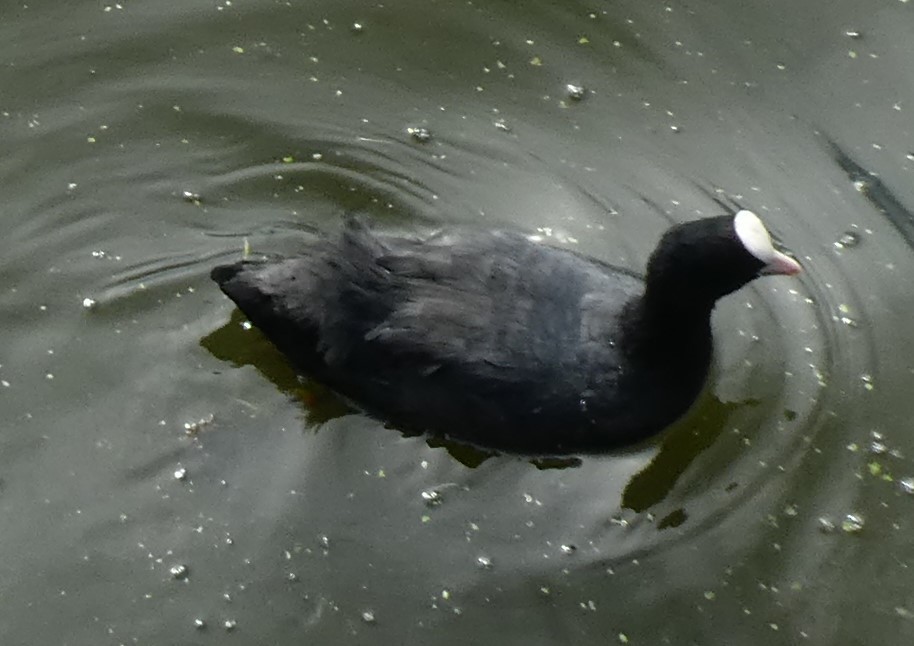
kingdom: Animalia
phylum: Chordata
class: Aves
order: Gruiformes
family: Rallidae
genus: Fulica
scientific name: Fulica atra
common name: Eurasian coot
